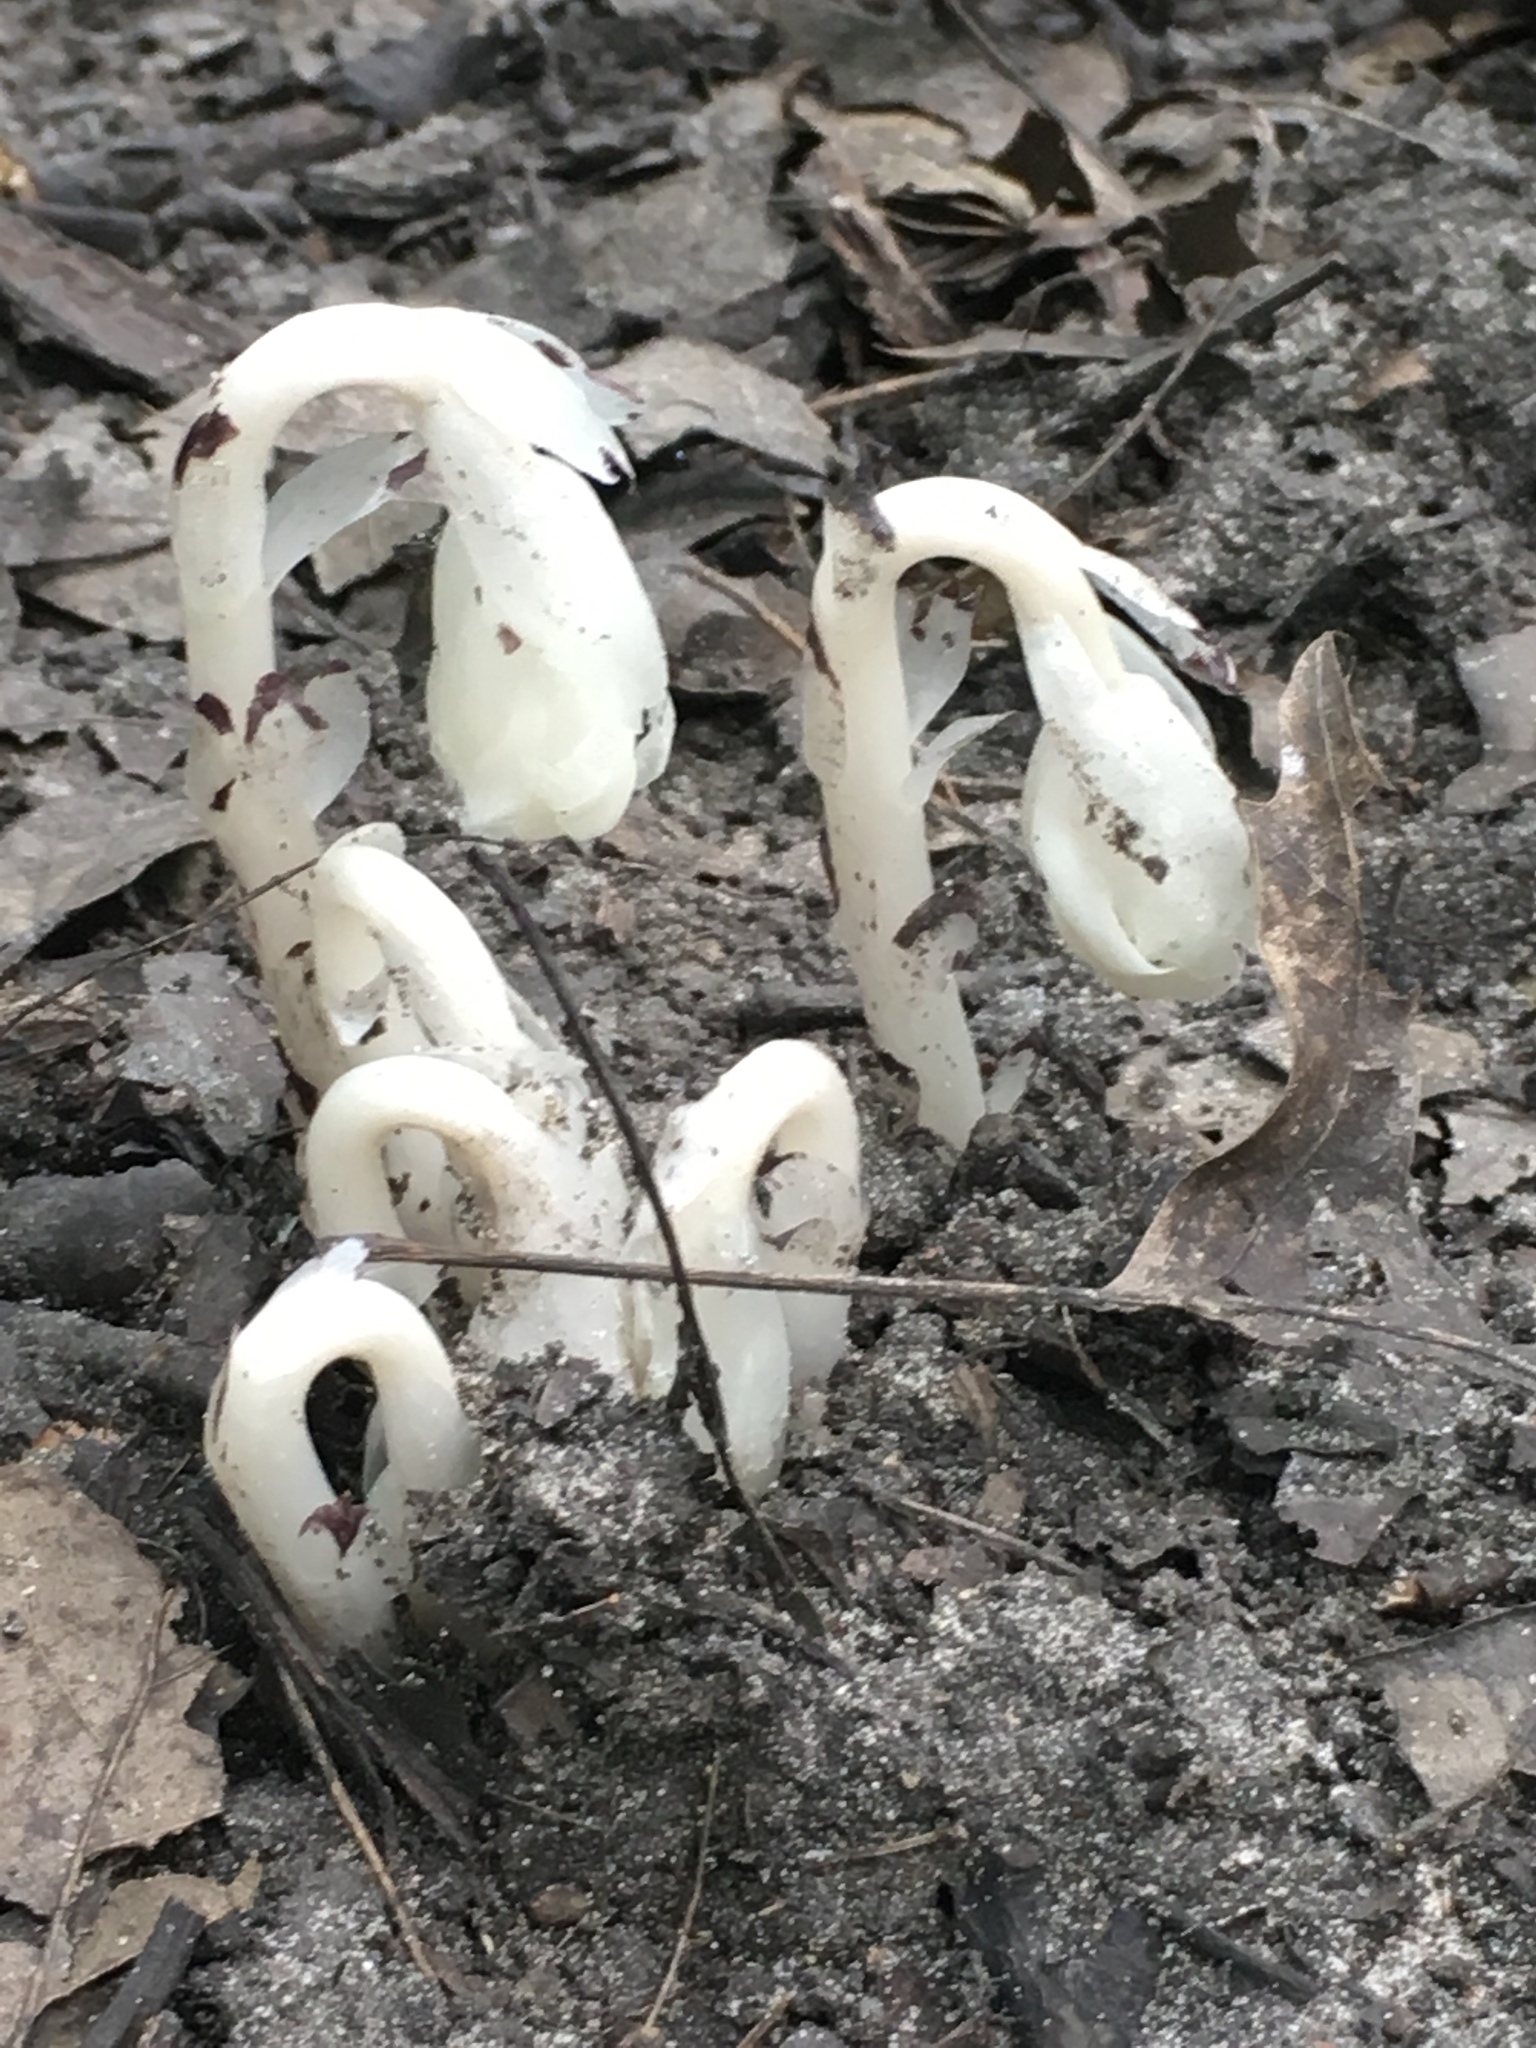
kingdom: Plantae
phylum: Tracheophyta
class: Magnoliopsida
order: Ericales
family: Ericaceae
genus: Monotropa
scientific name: Monotropa uniflora
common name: Convulsion root
